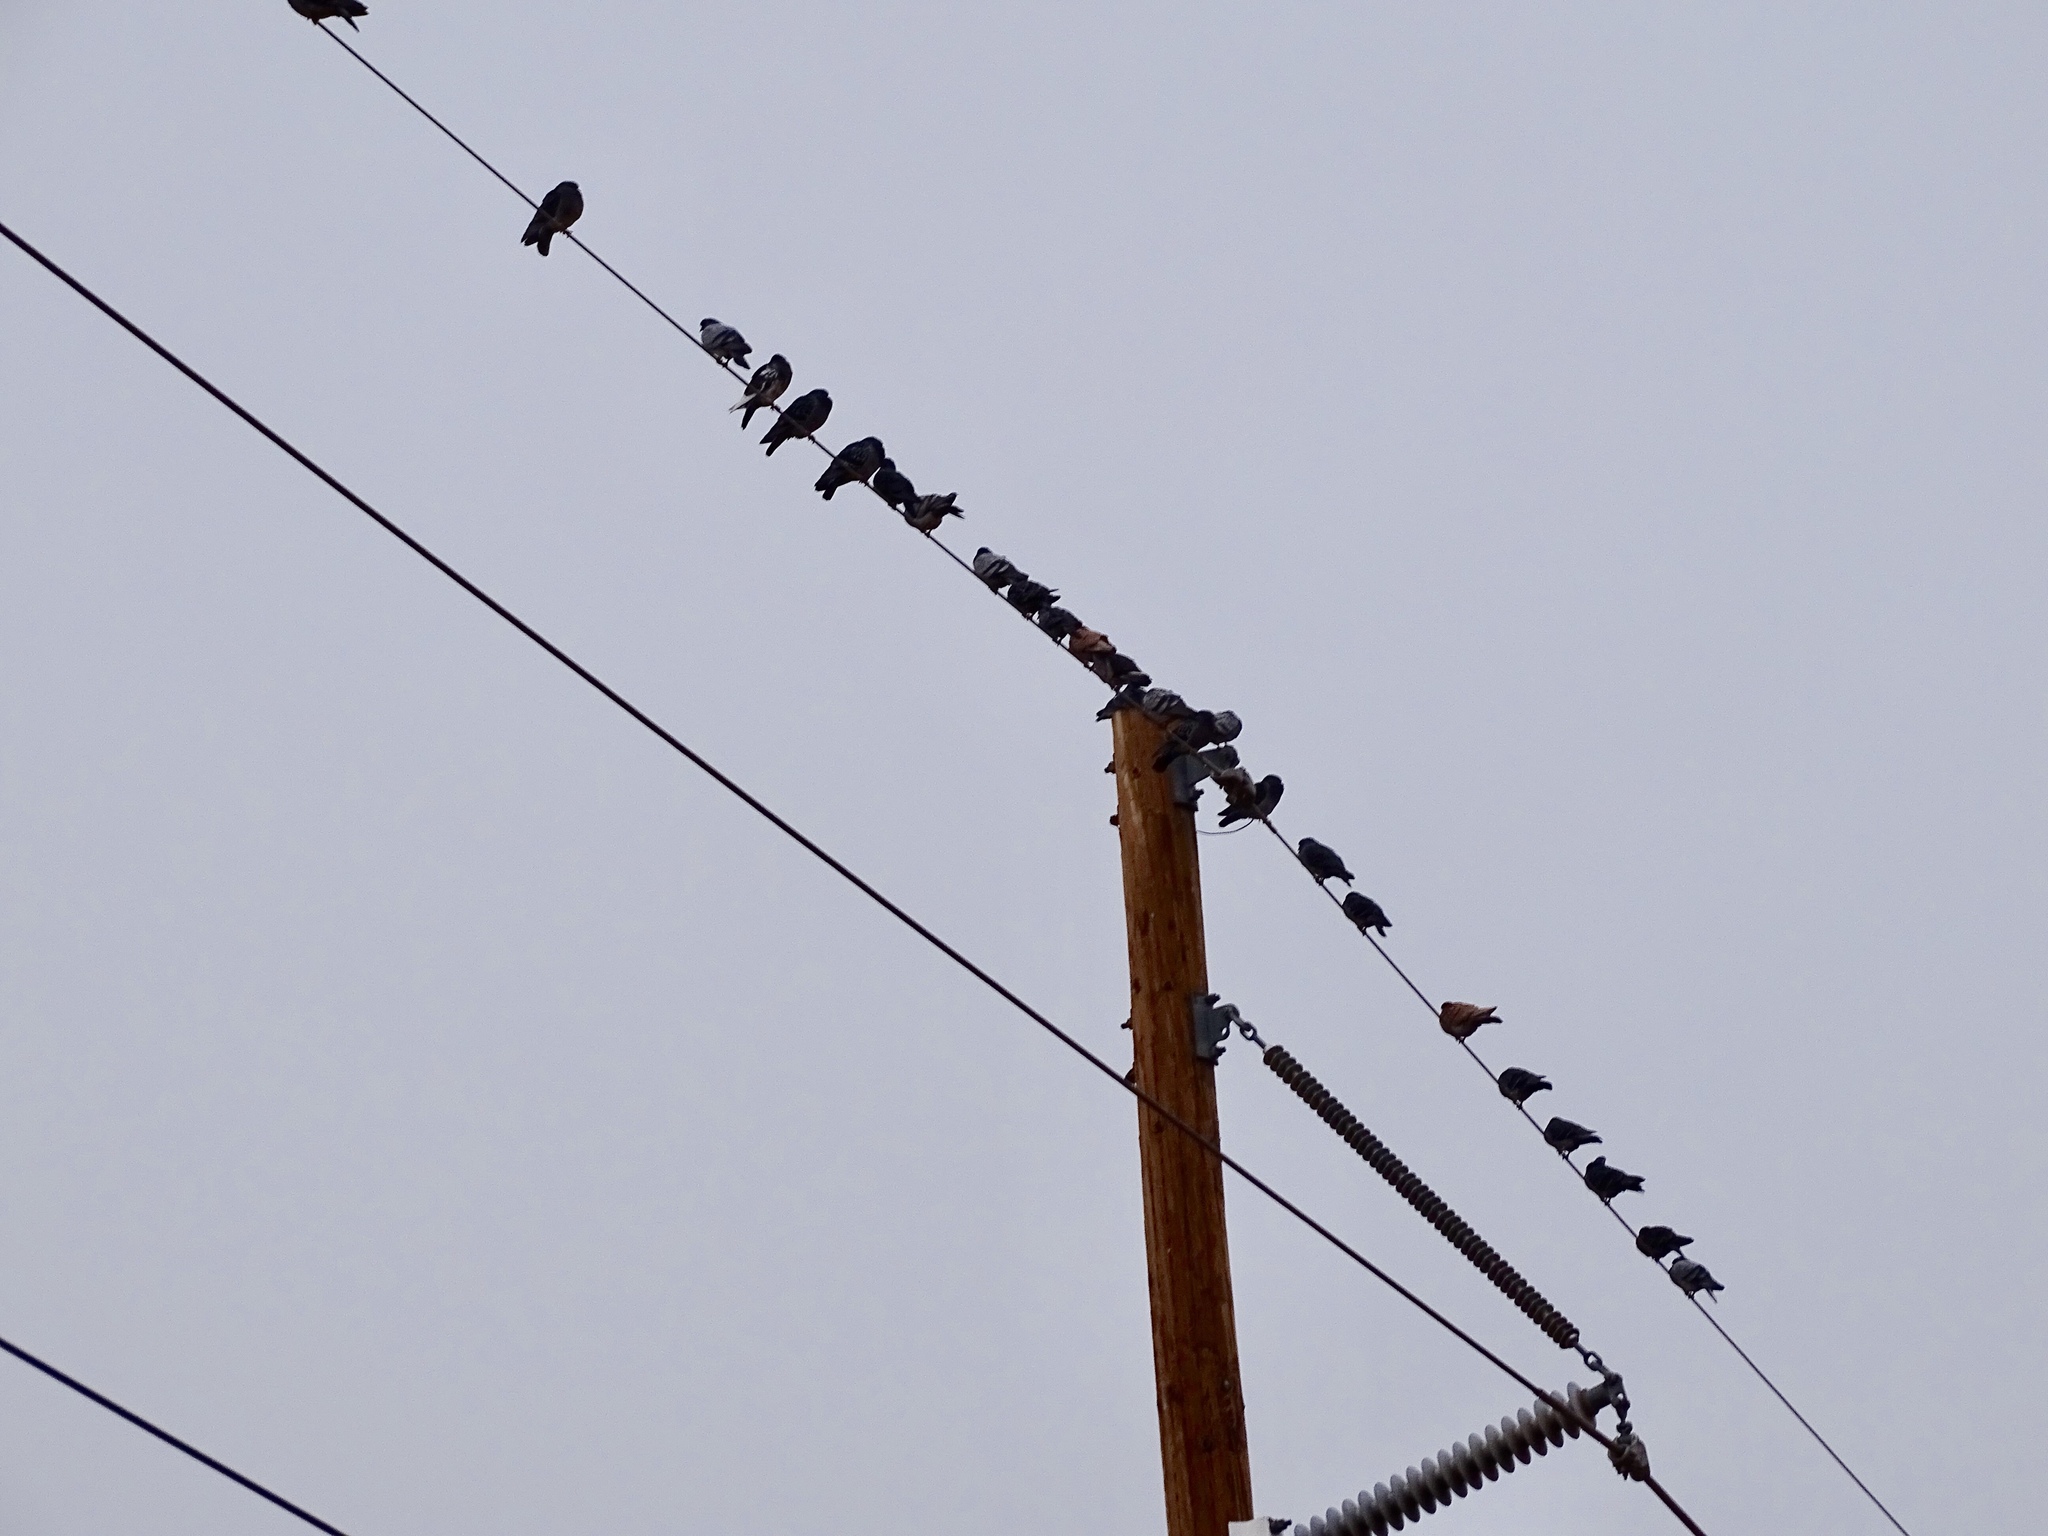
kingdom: Animalia
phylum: Chordata
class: Aves
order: Columbiformes
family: Columbidae
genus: Columba
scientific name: Columba livia
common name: Rock pigeon
